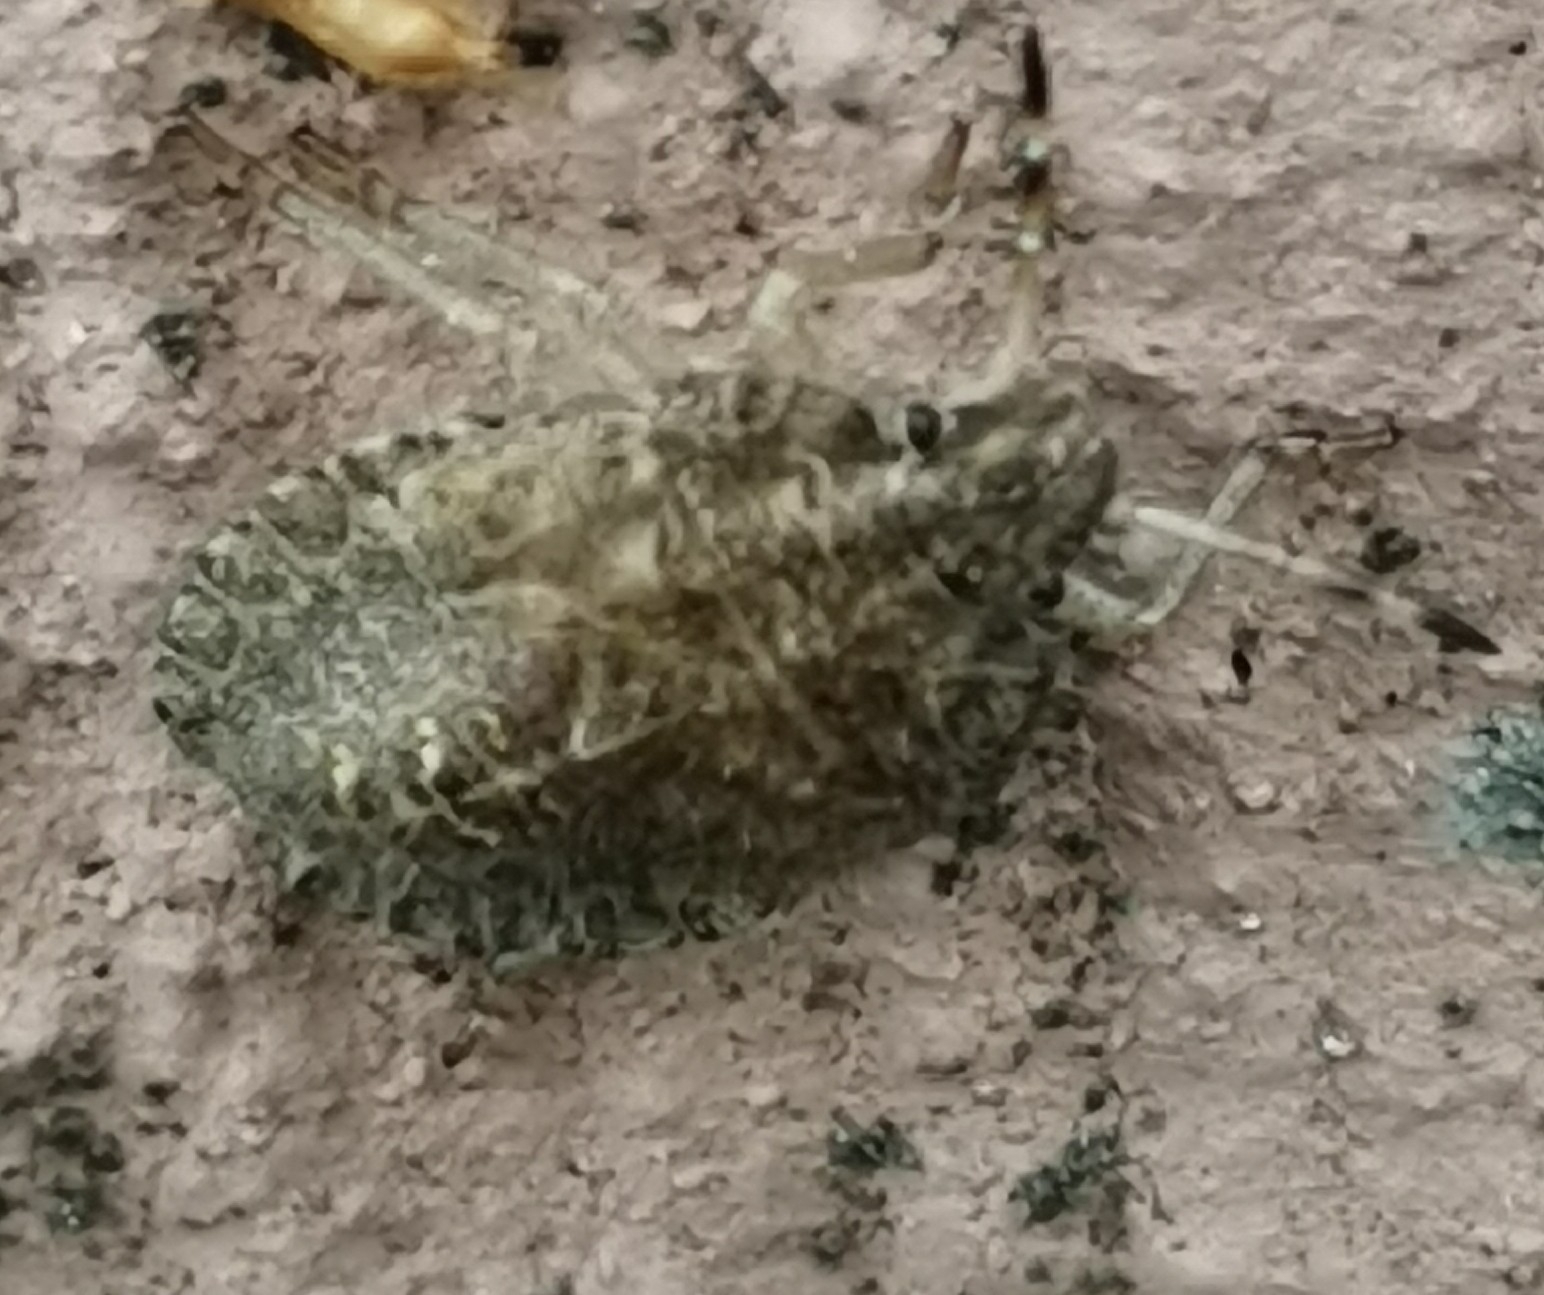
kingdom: Animalia
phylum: Arthropoda
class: Insecta
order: Hemiptera
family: Pentatomidae
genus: Dolycoris
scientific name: Dolycoris baccarum
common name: Sloe bug
